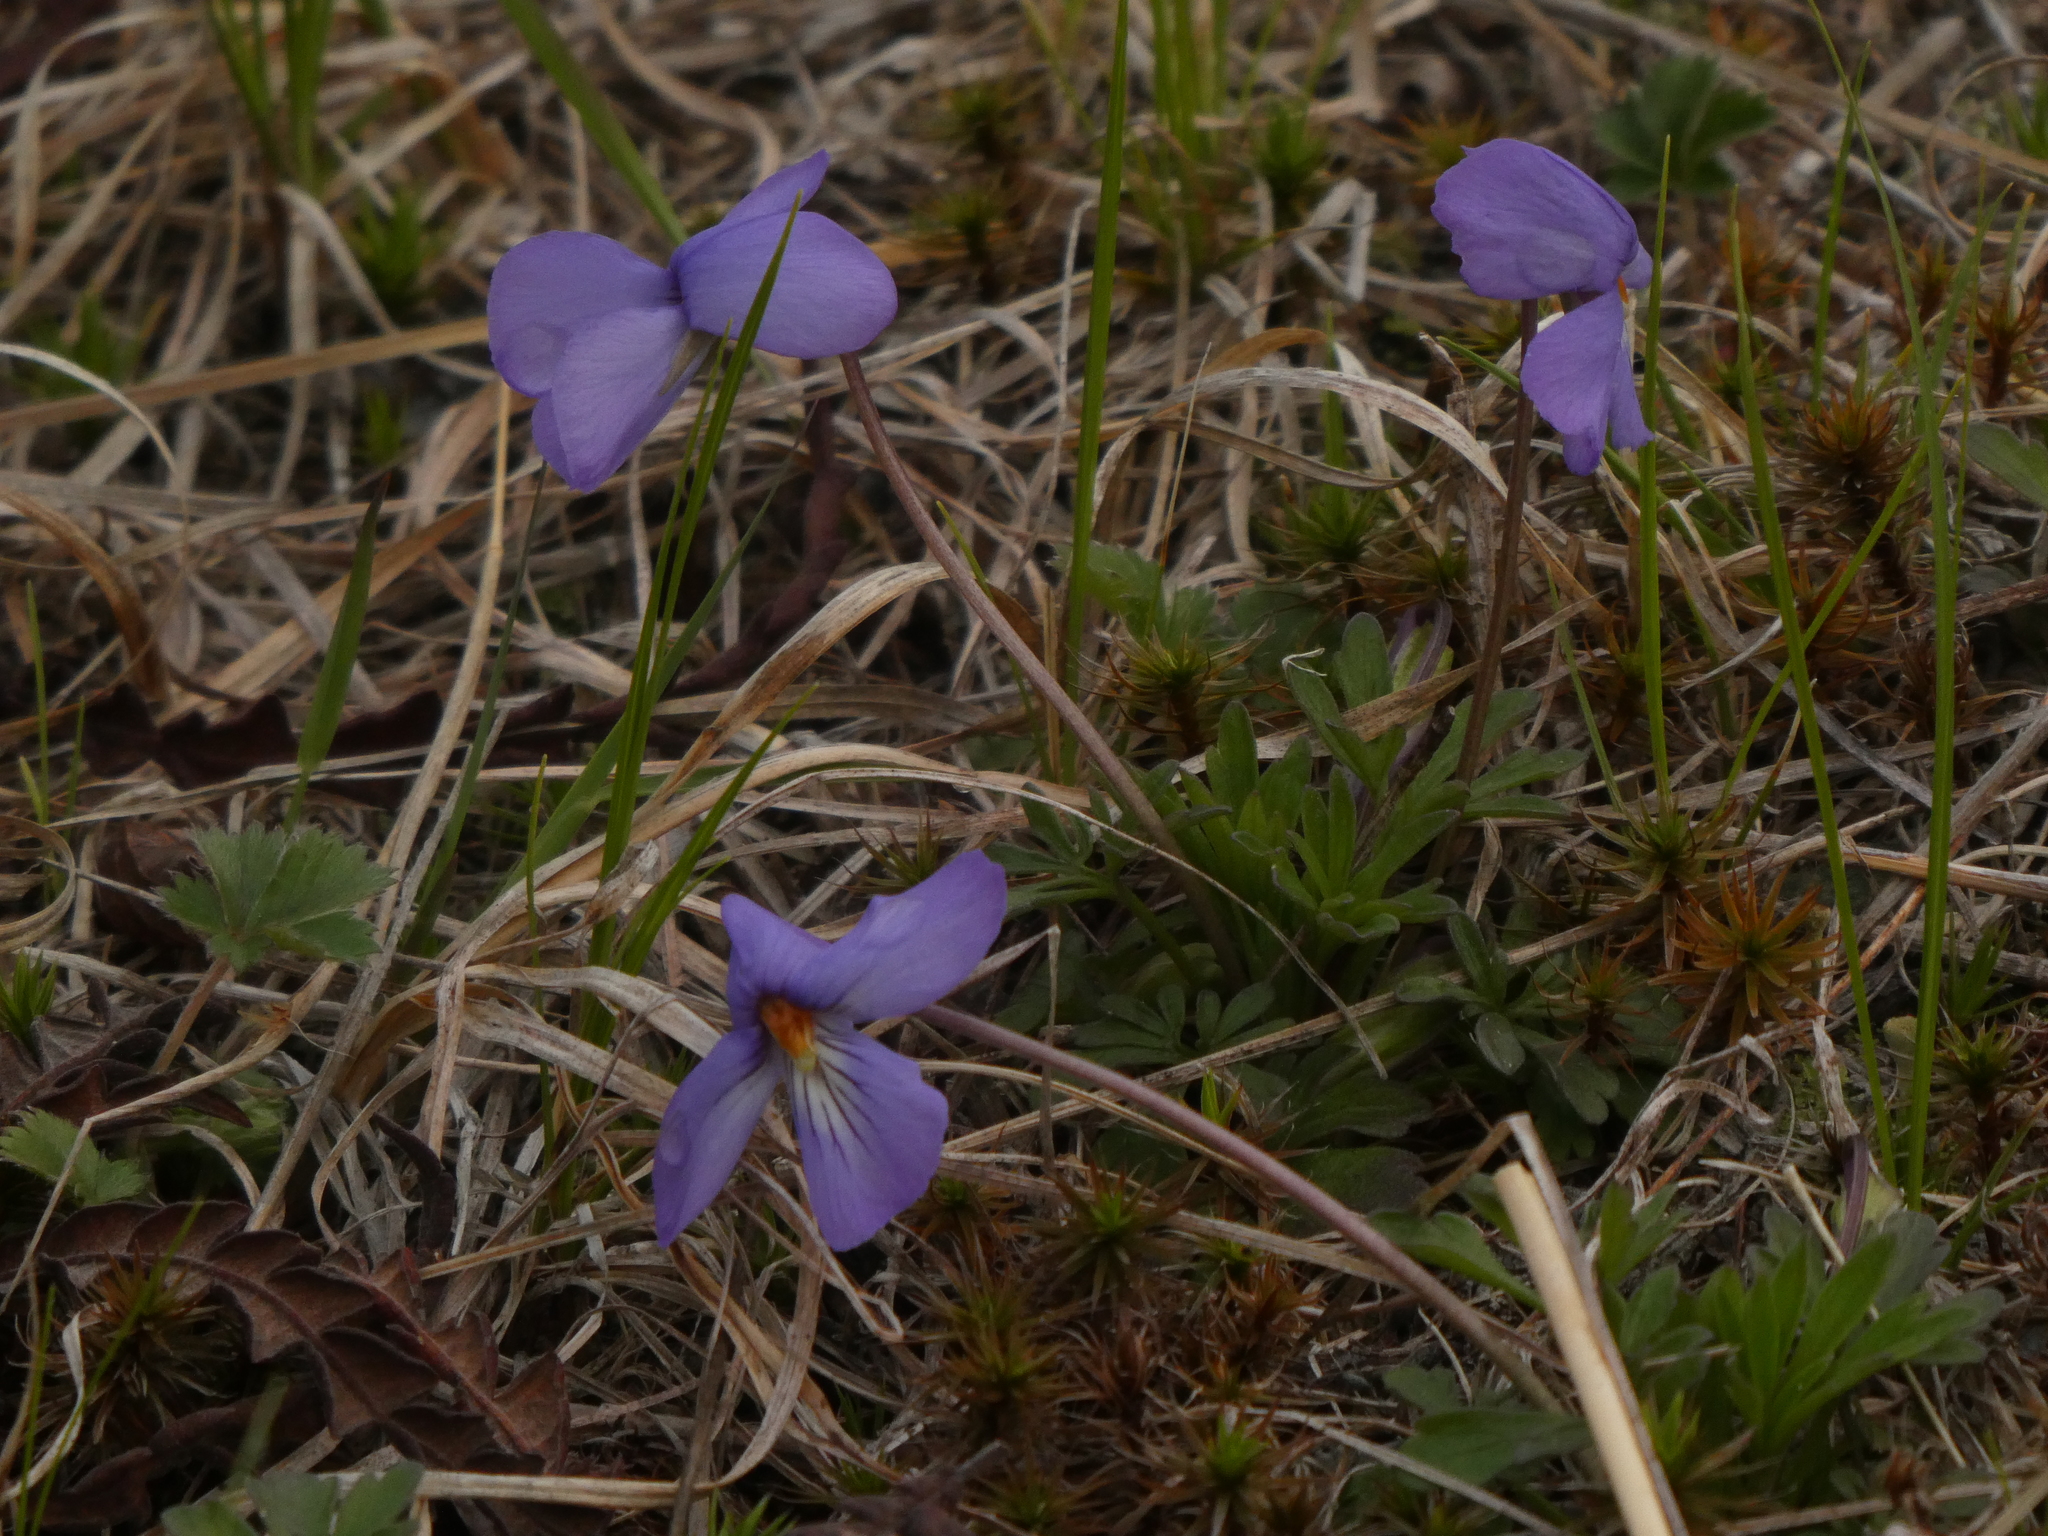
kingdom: Plantae
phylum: Tracheophyta
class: Magnoliopsida
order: Malpighiales
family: Violaceae
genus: Viola
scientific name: Viola pedata
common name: Pansy violet
